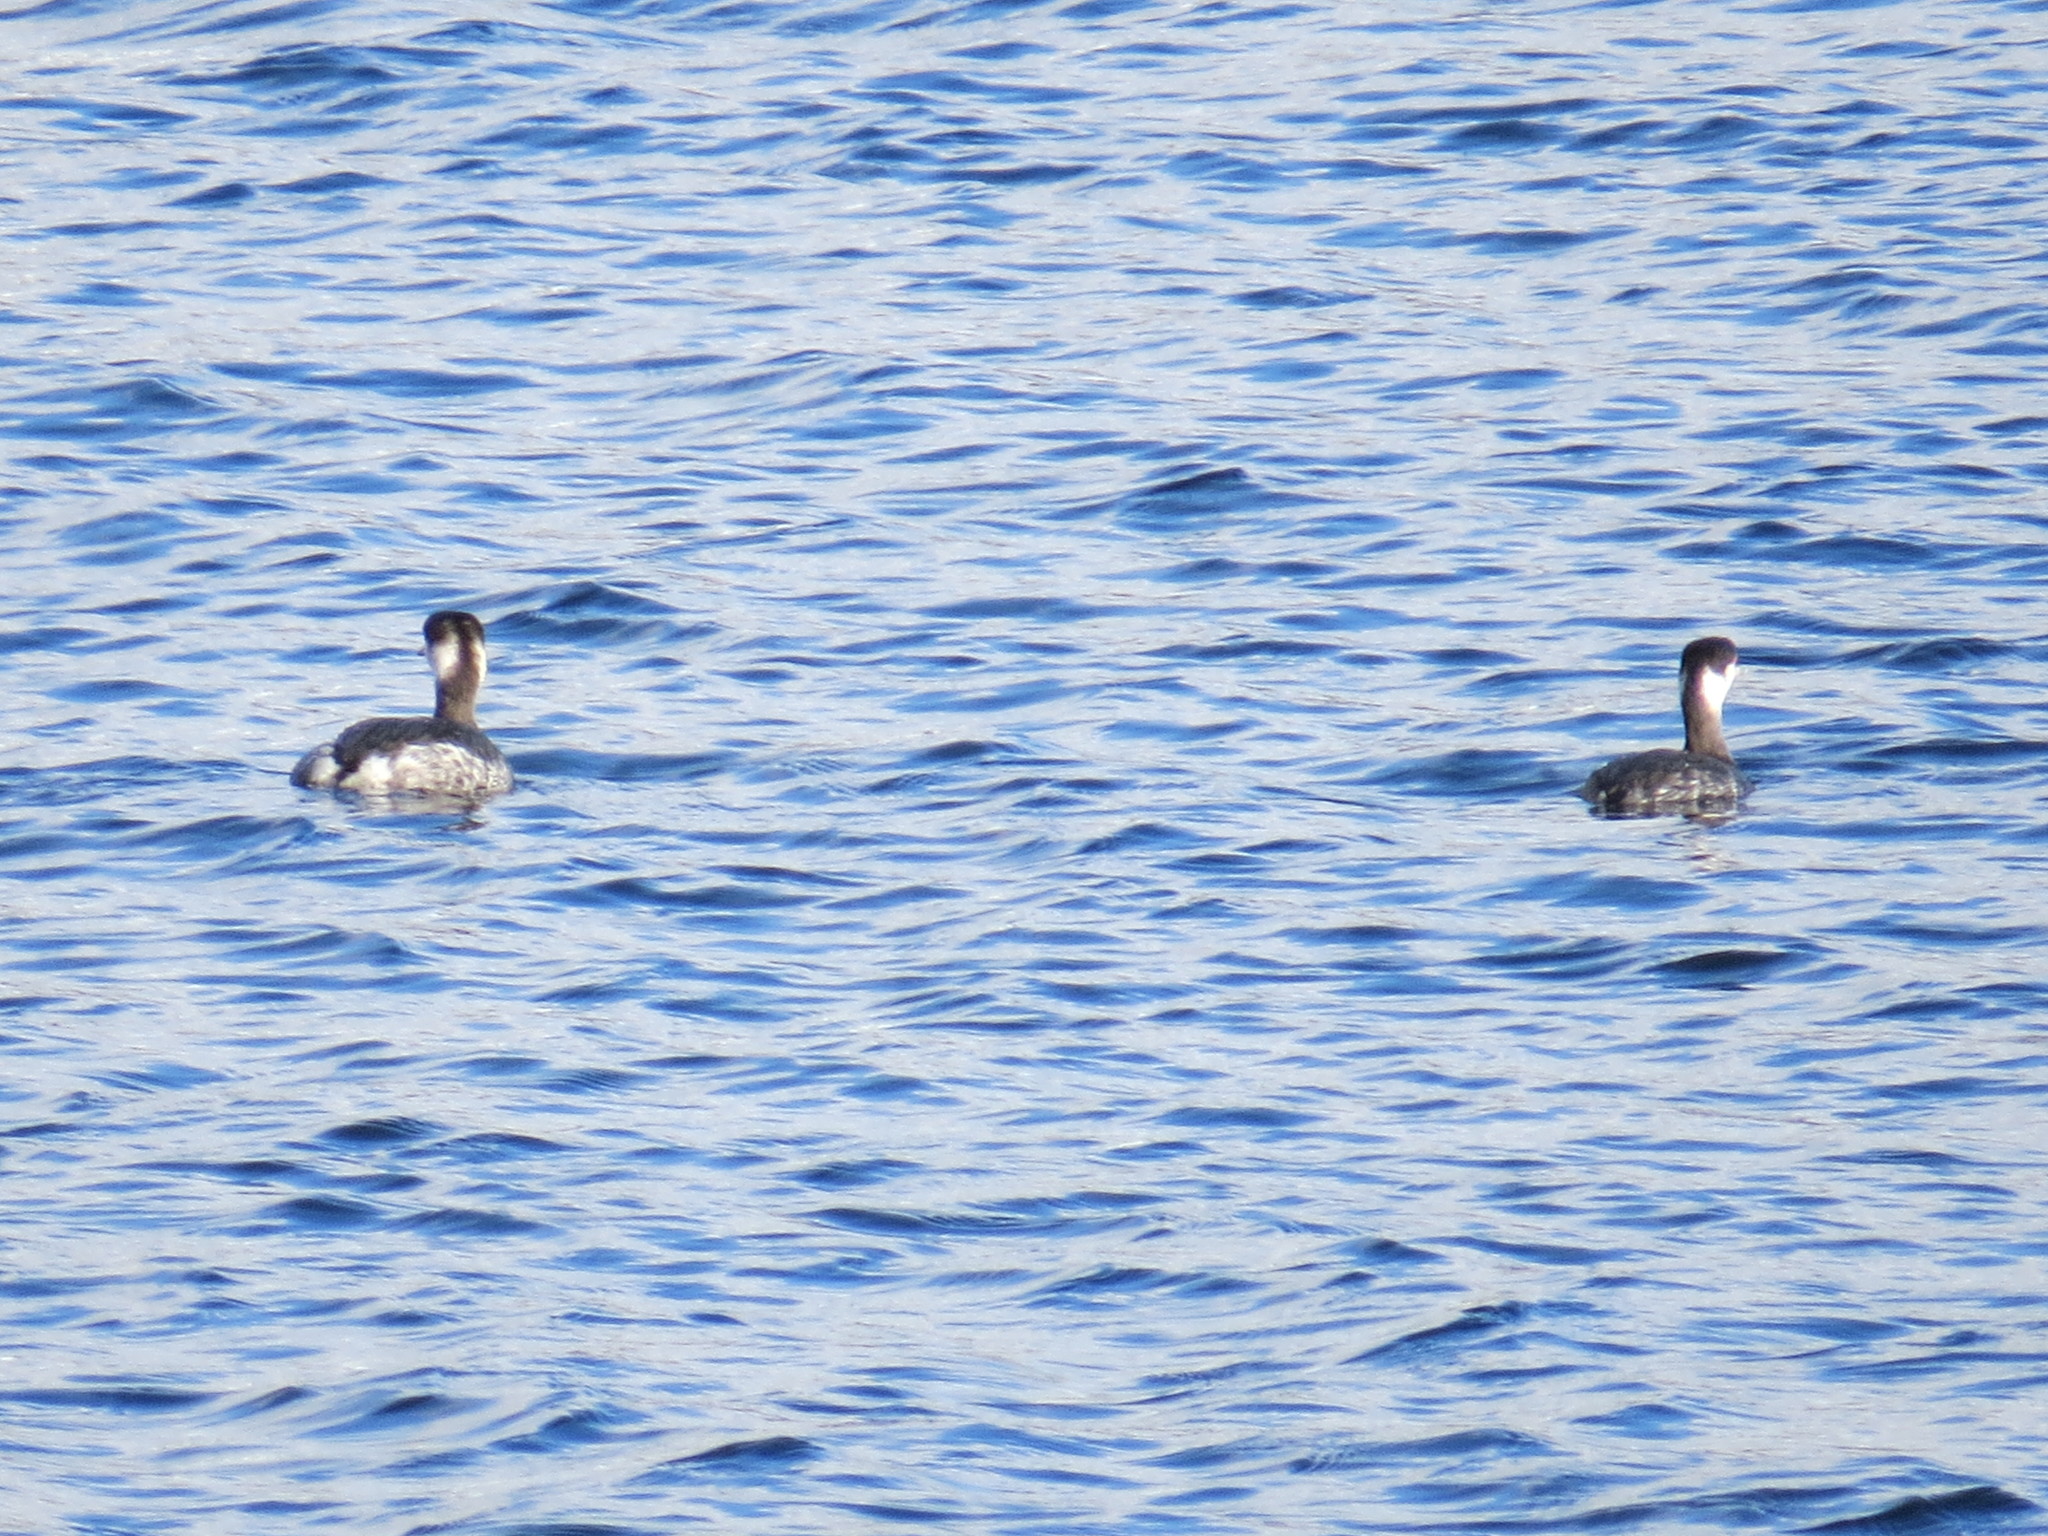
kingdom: Animalia
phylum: Chordata
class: Aves
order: Podicipediformes
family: Podicipedidae
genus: Podiceps
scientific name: Podiceps auritus
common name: Horned grebe
